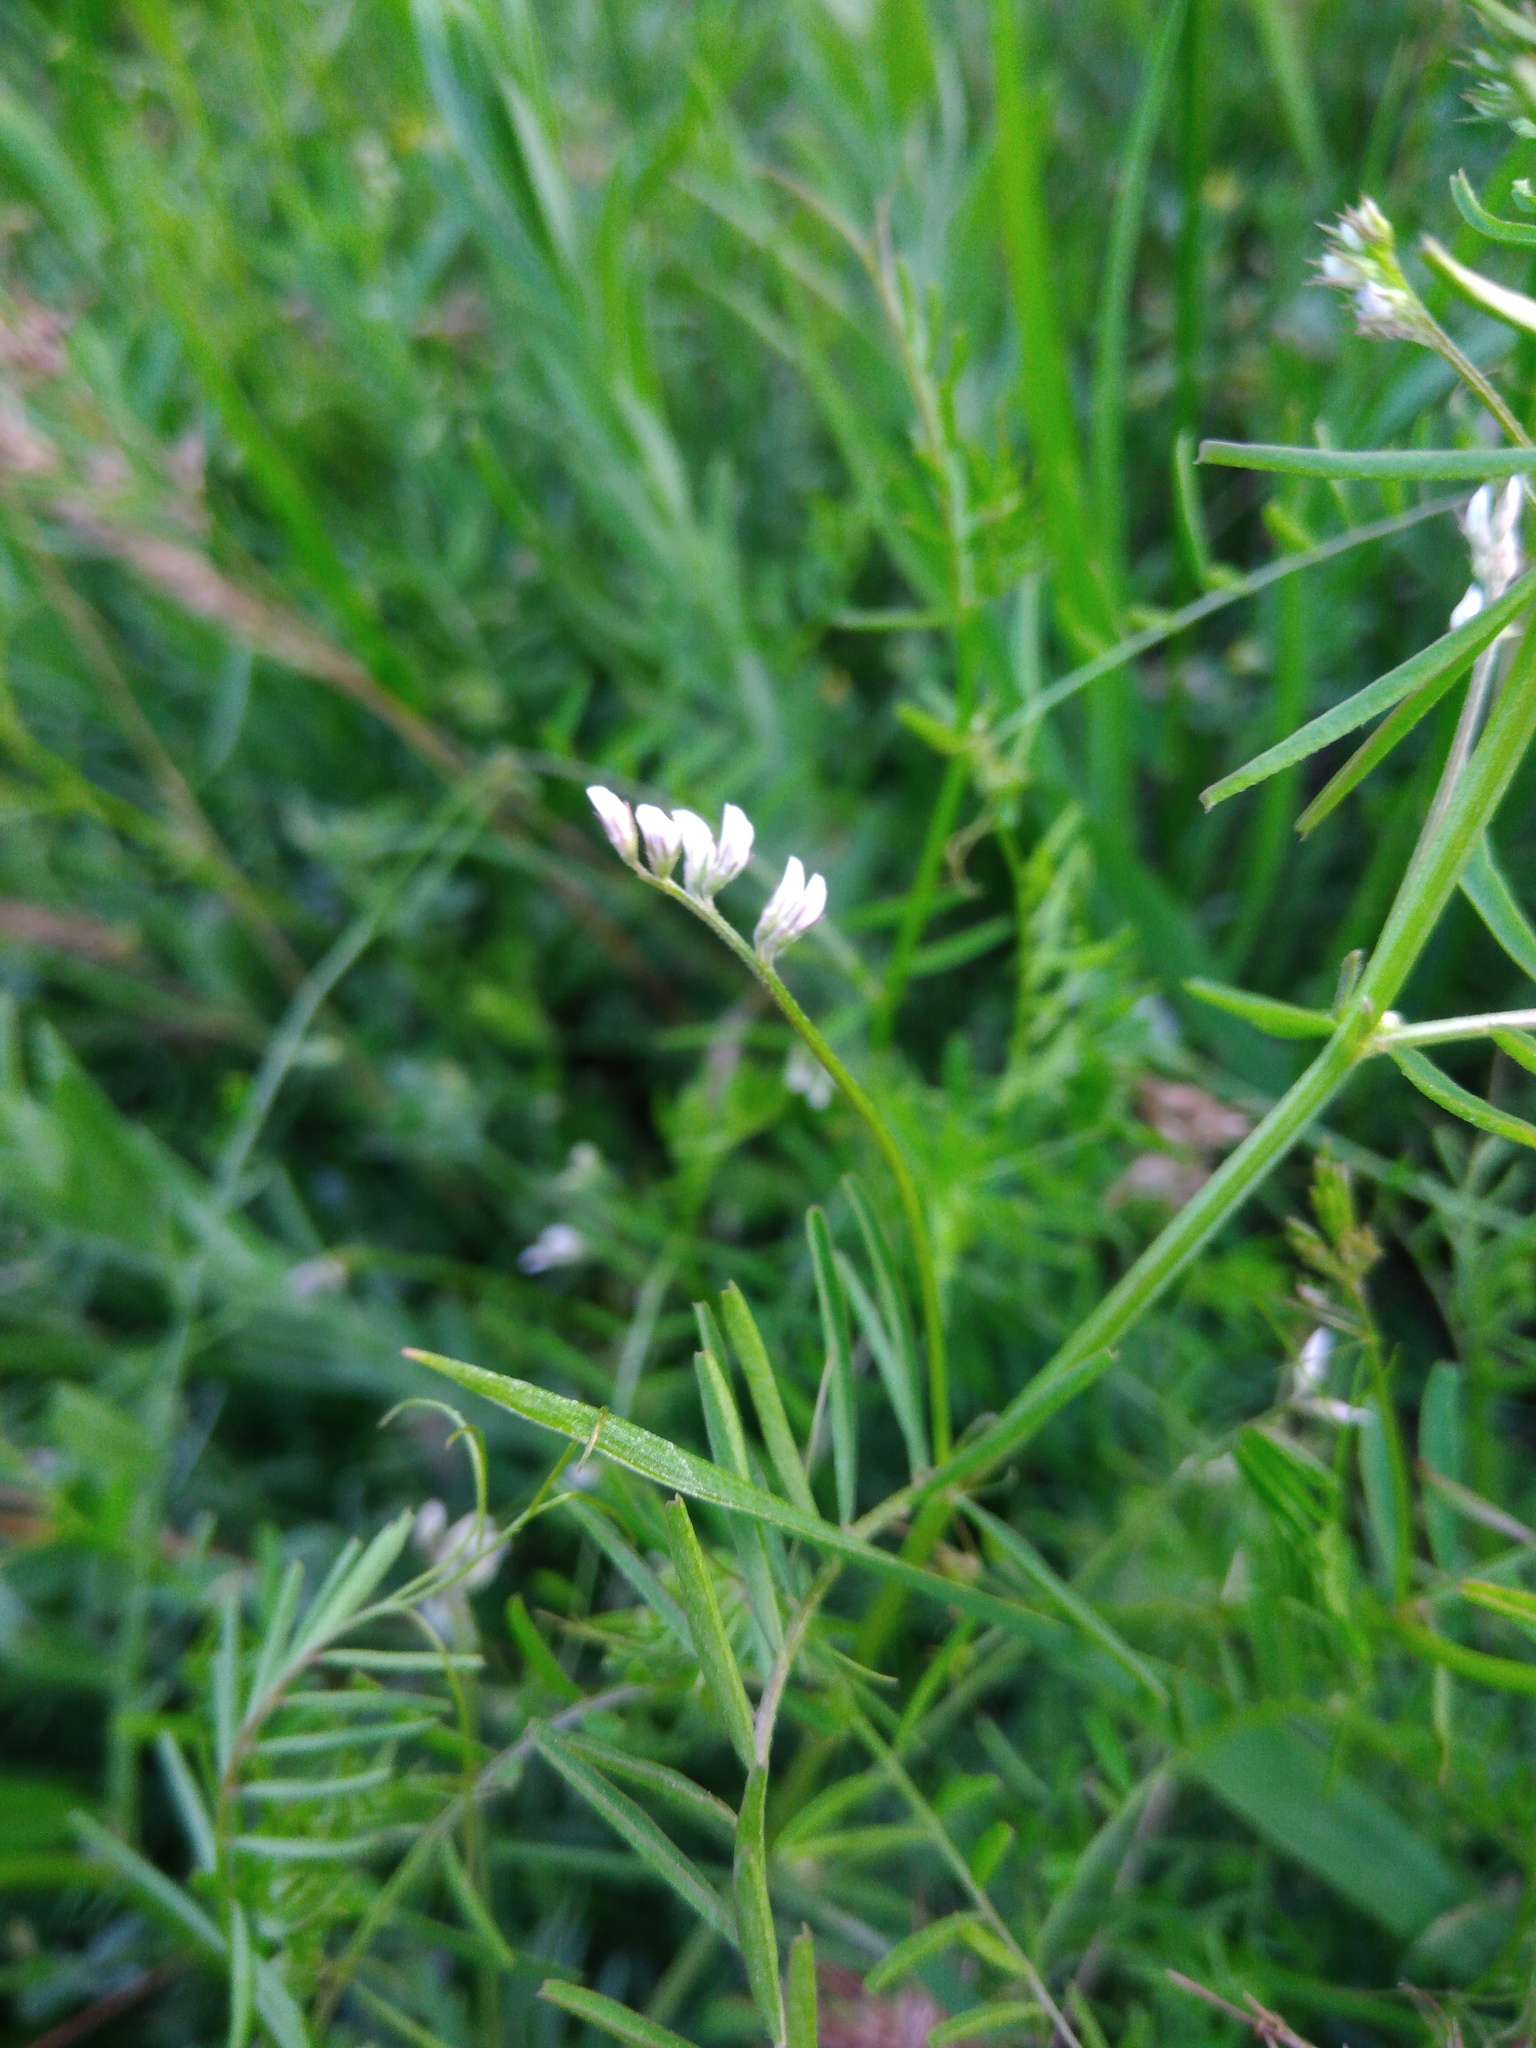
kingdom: Plantae
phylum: Tracheophyta
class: Magnoliopsida
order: Fabales
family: Fabaceae
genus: Vicia
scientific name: Vicia hirsuta
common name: Tiny vetch
